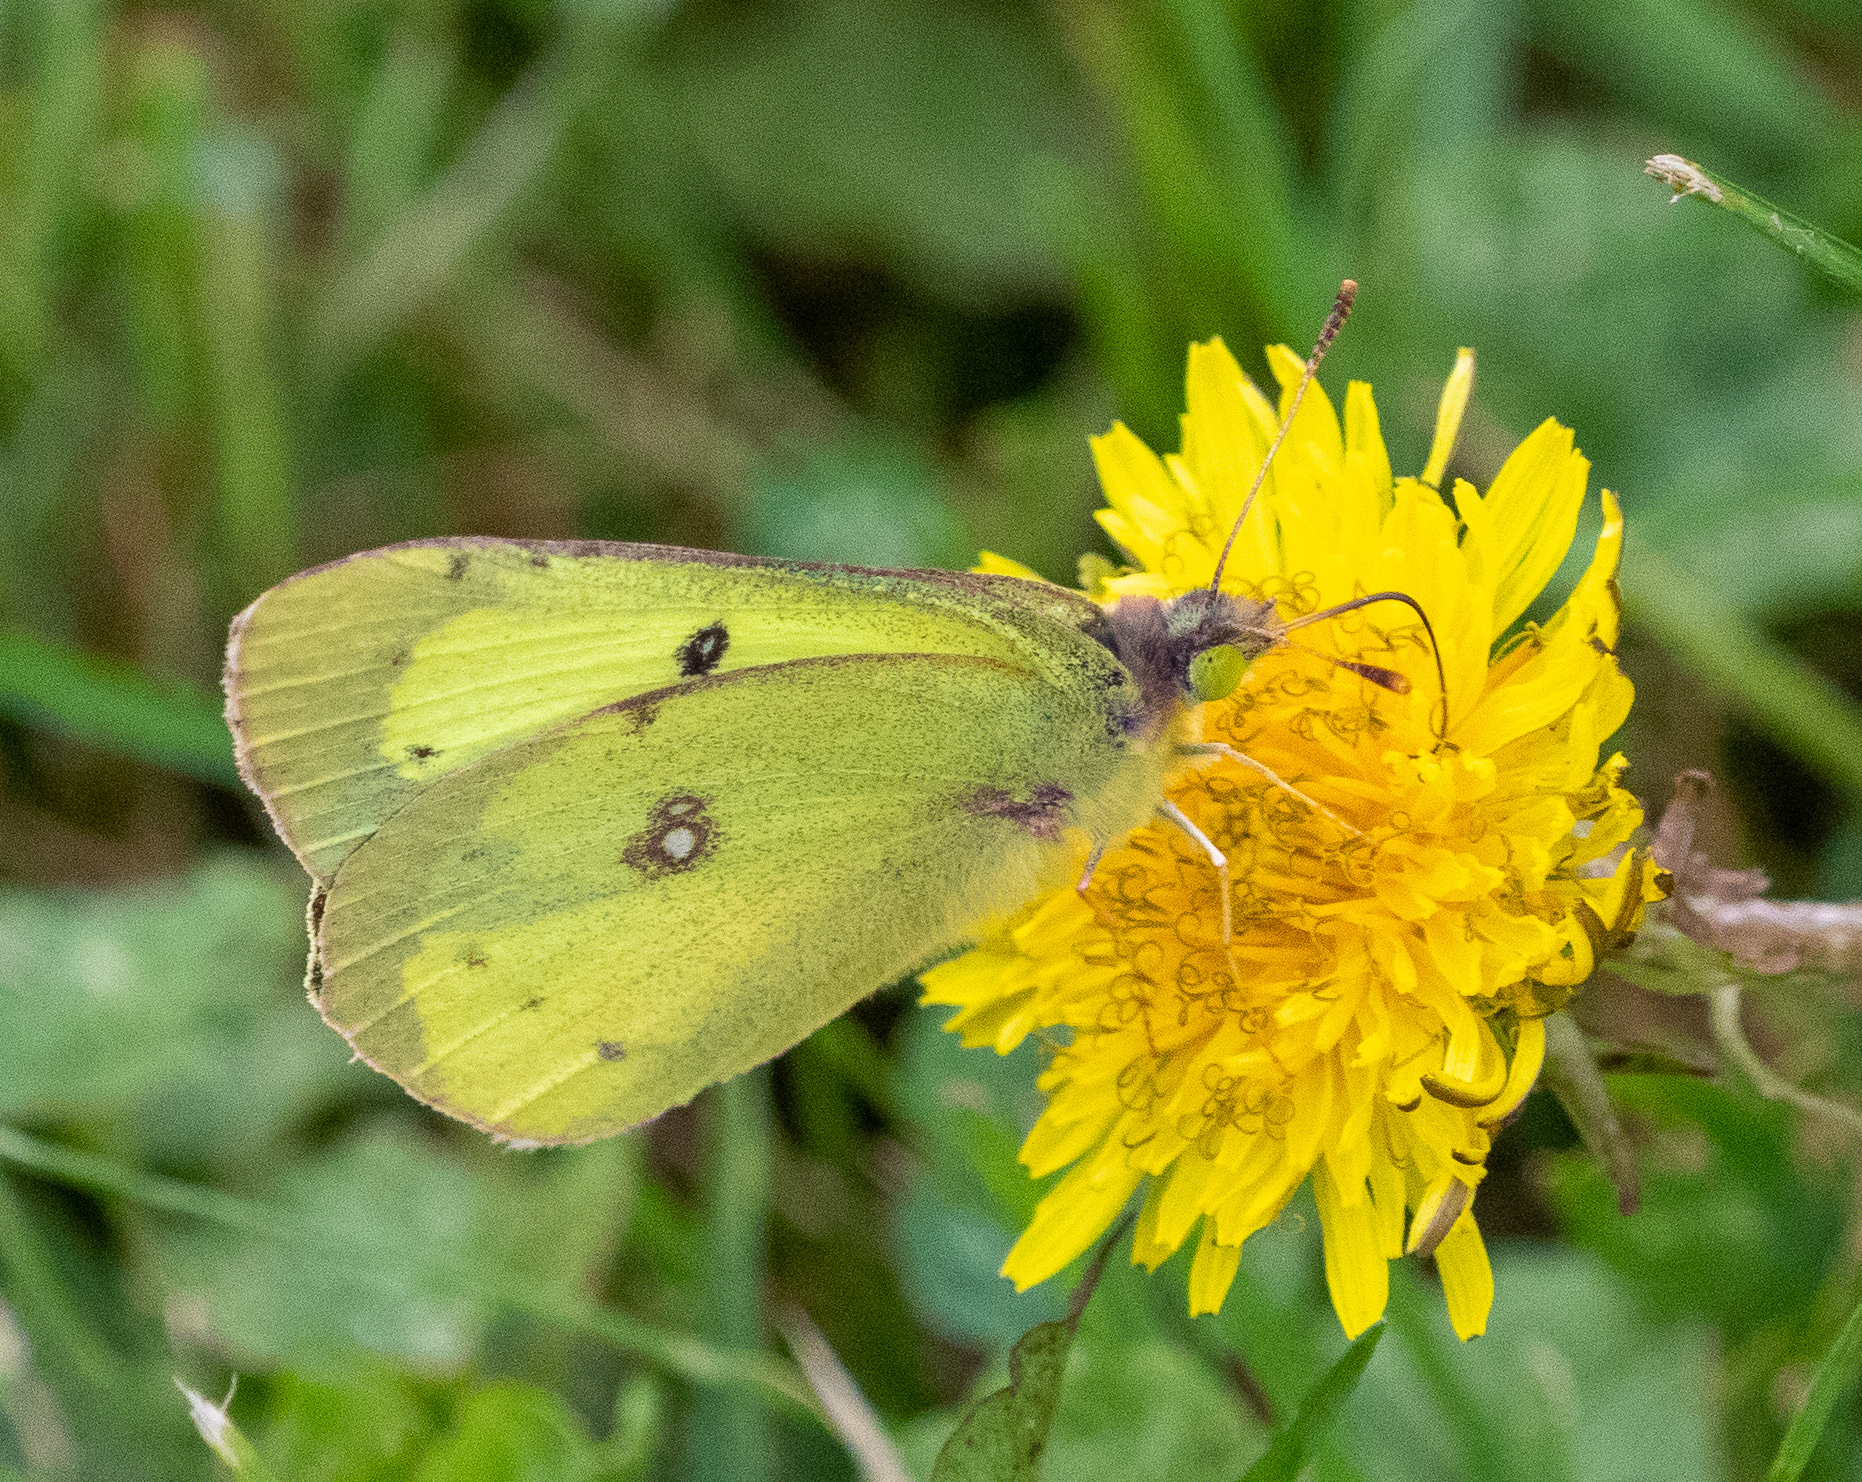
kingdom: Animalia
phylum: Arthropoda
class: Insecta
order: Lepidoptera
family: Pieridae
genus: Colias
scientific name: Colias philodice
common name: Clouded sulphur
